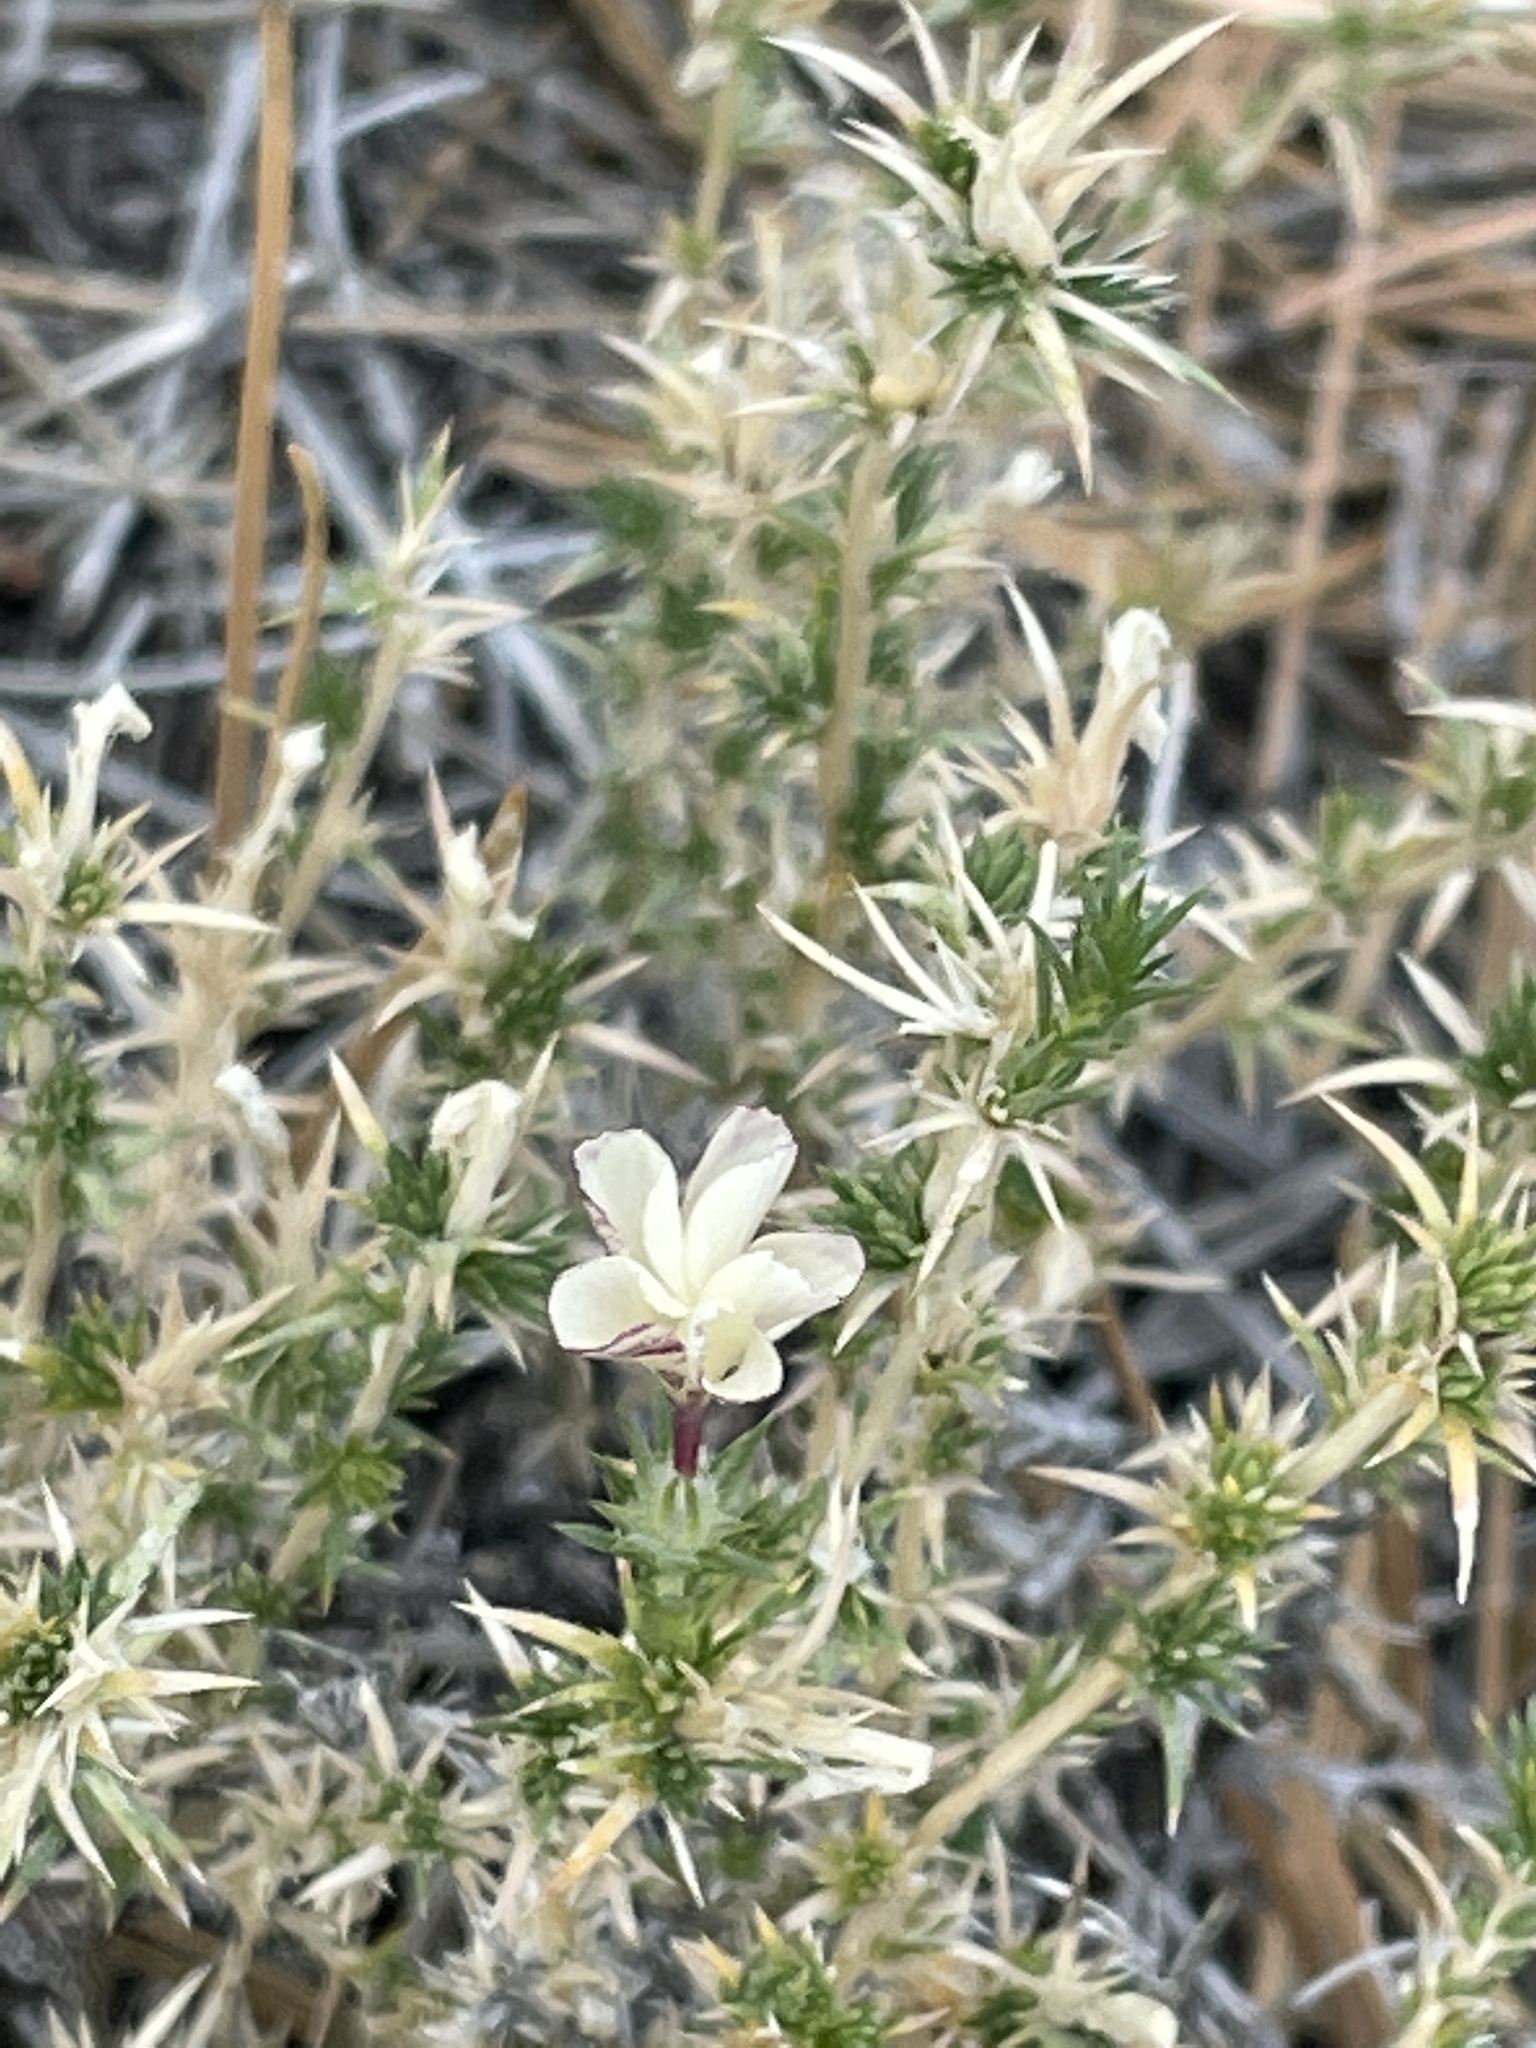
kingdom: Plantae
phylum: Tracheophyta
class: Magnoliopsida
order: Ericales
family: Polemoniaceae
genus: Linanthus
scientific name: Linanthus pungens
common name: Granite prickly phlox
